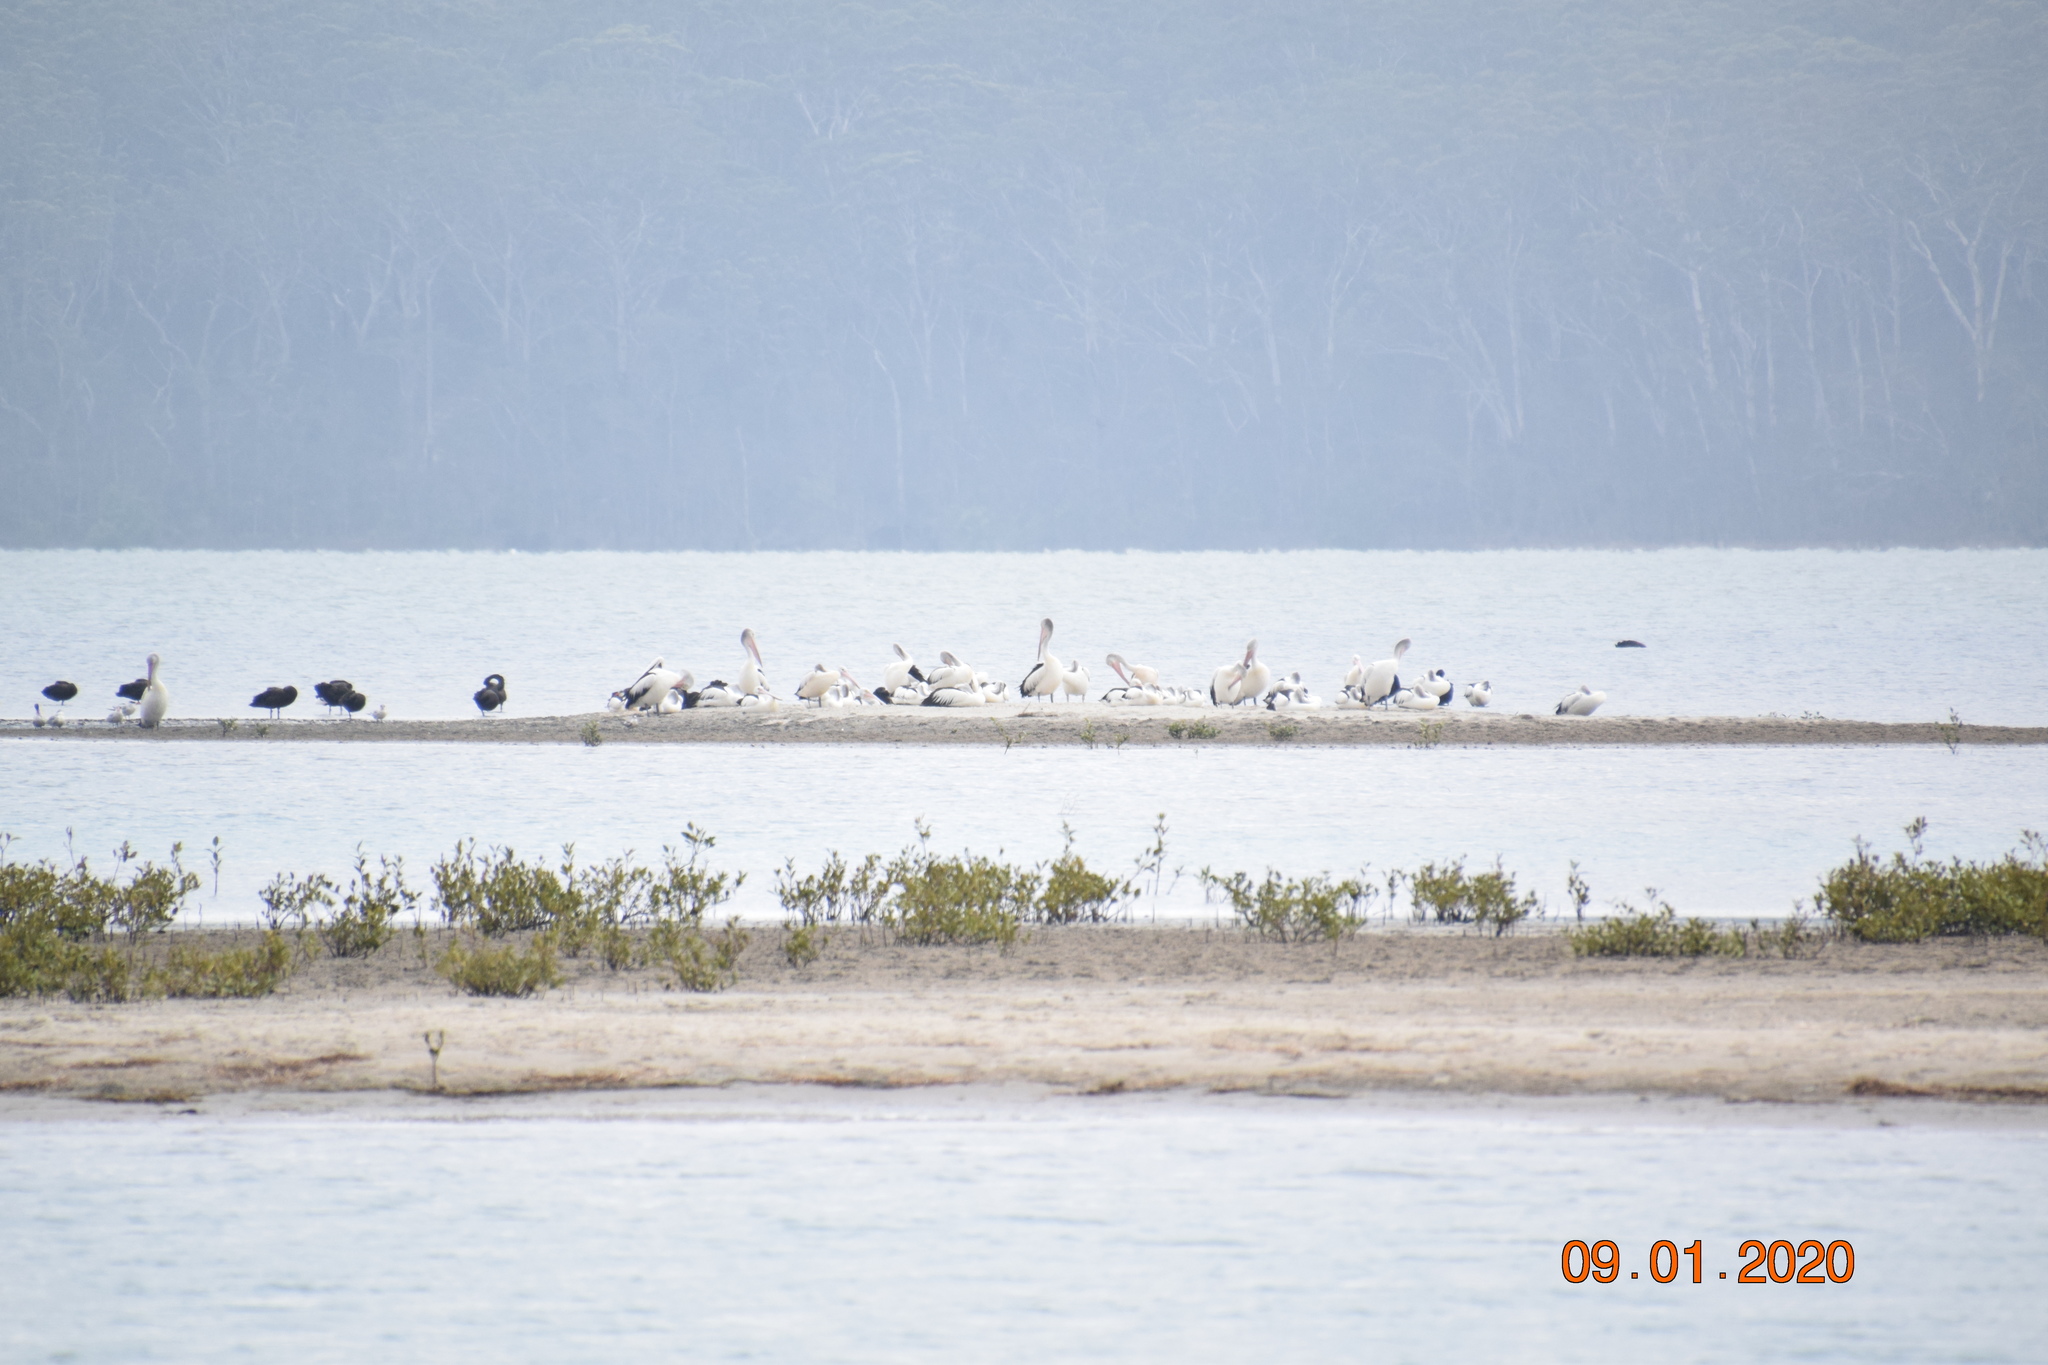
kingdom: Animalia
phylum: Chordata
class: Aves
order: Pelecaniformes
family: Pelecanidae
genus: Pelecanus
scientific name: Pelecanus conspicillatus
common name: Australian pelican
